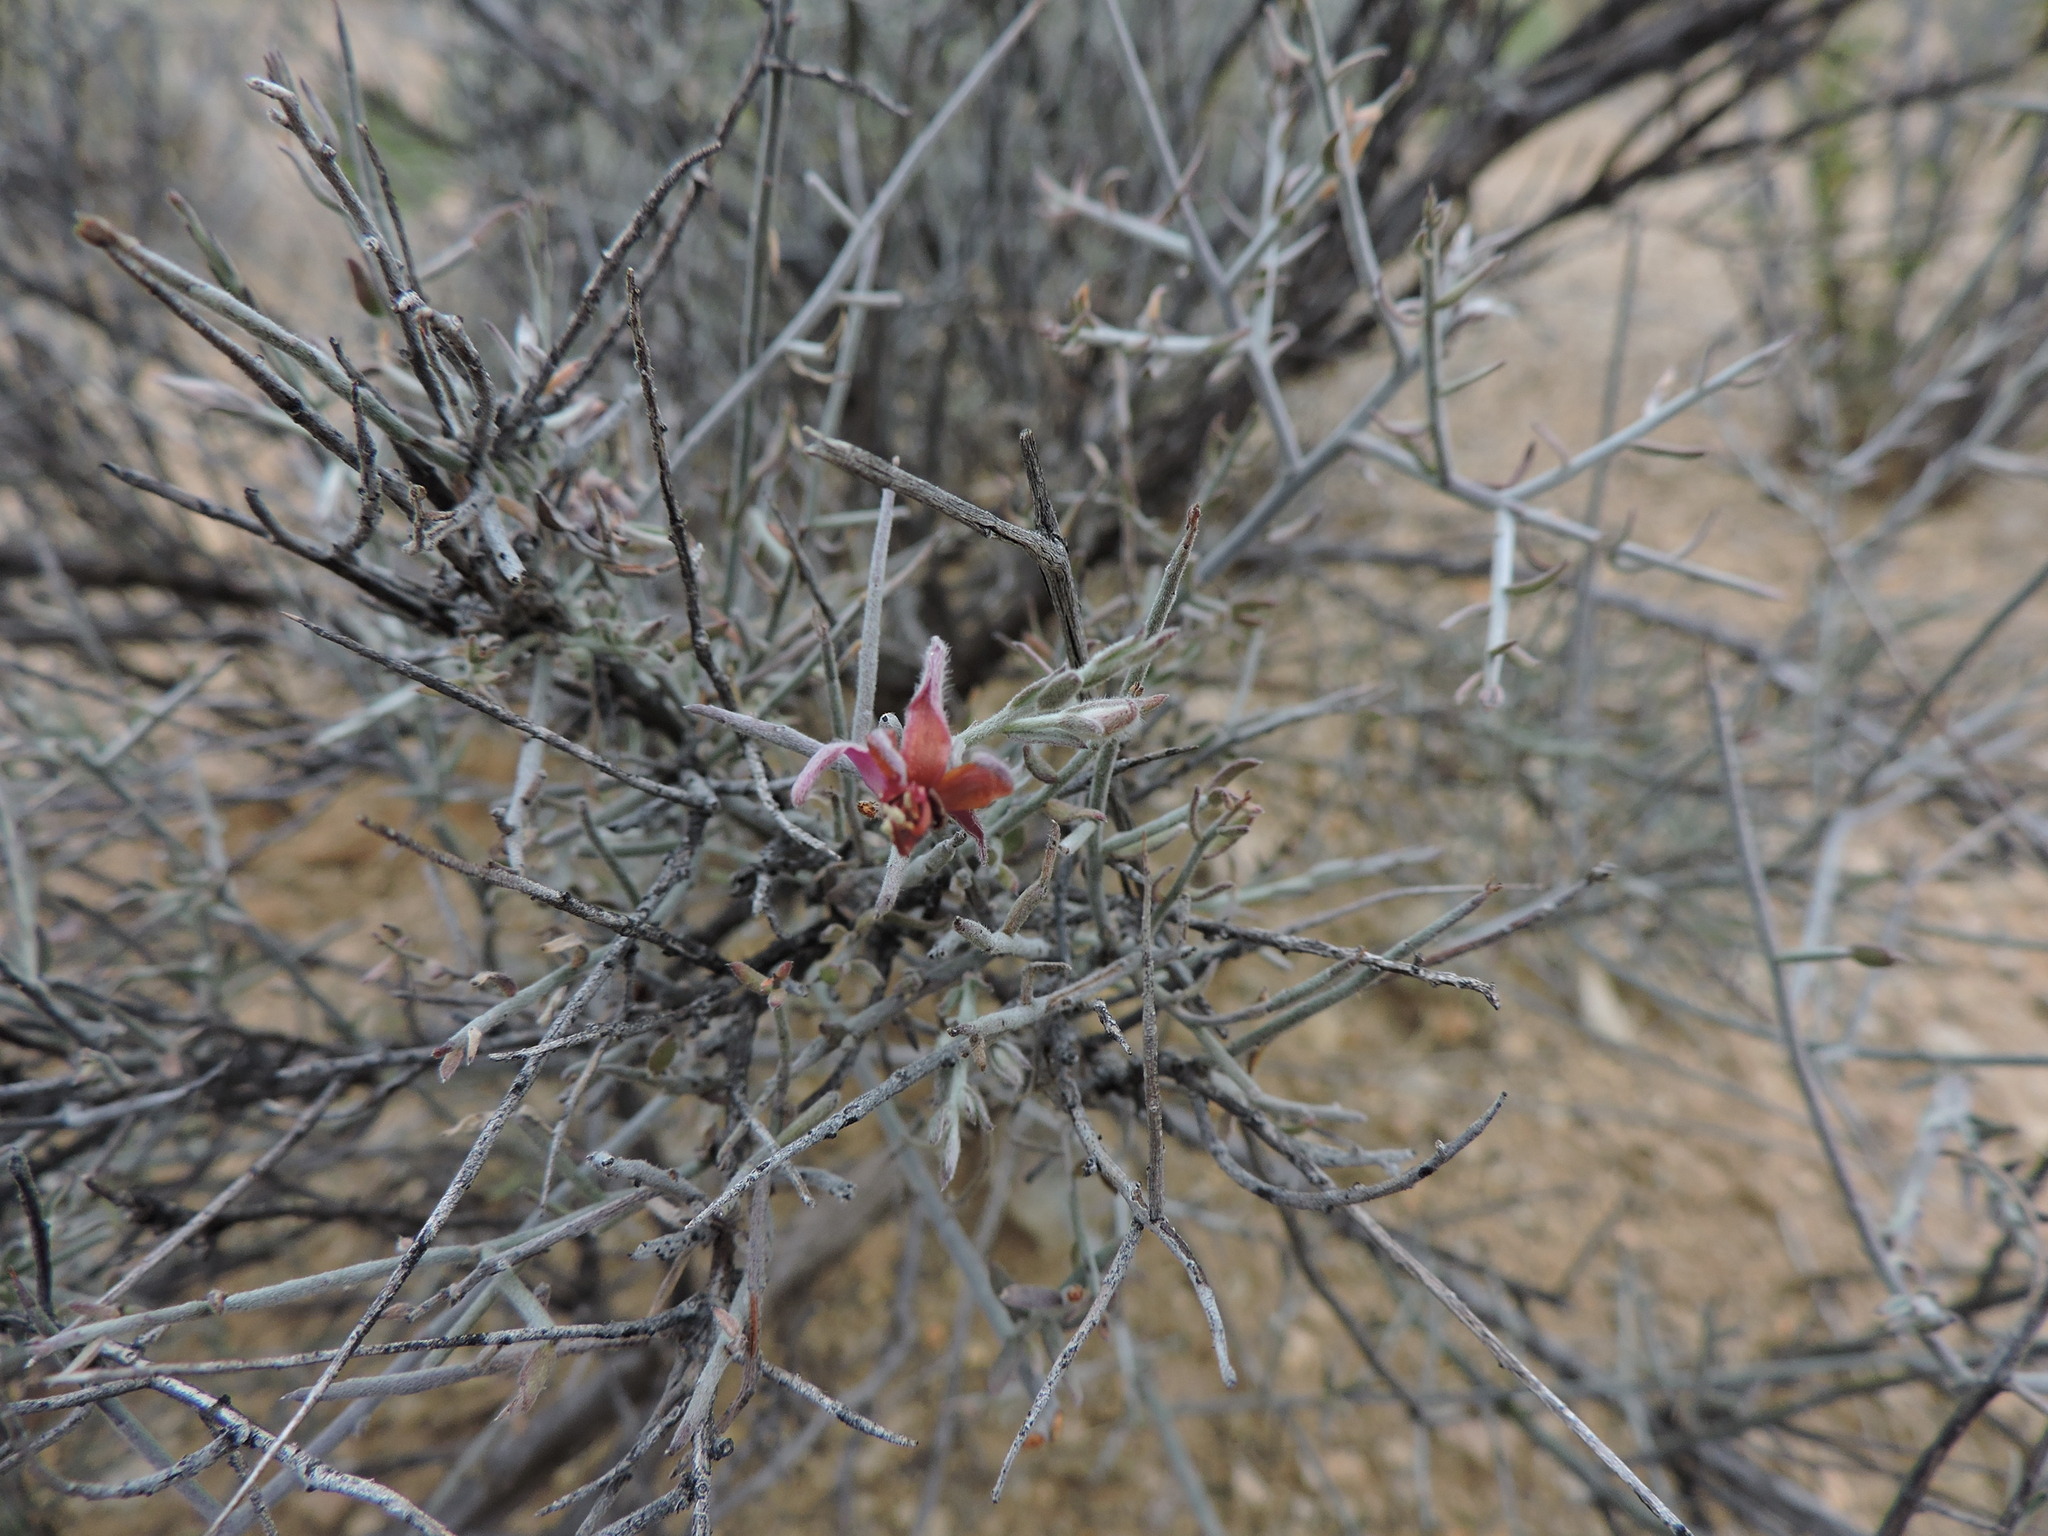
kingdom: Plantae
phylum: Tracheophyta
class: Magnoliopsida
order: Zygophyllales
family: Krameriaceae
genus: Krameria
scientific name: Krameria bicolor
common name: White ratany
